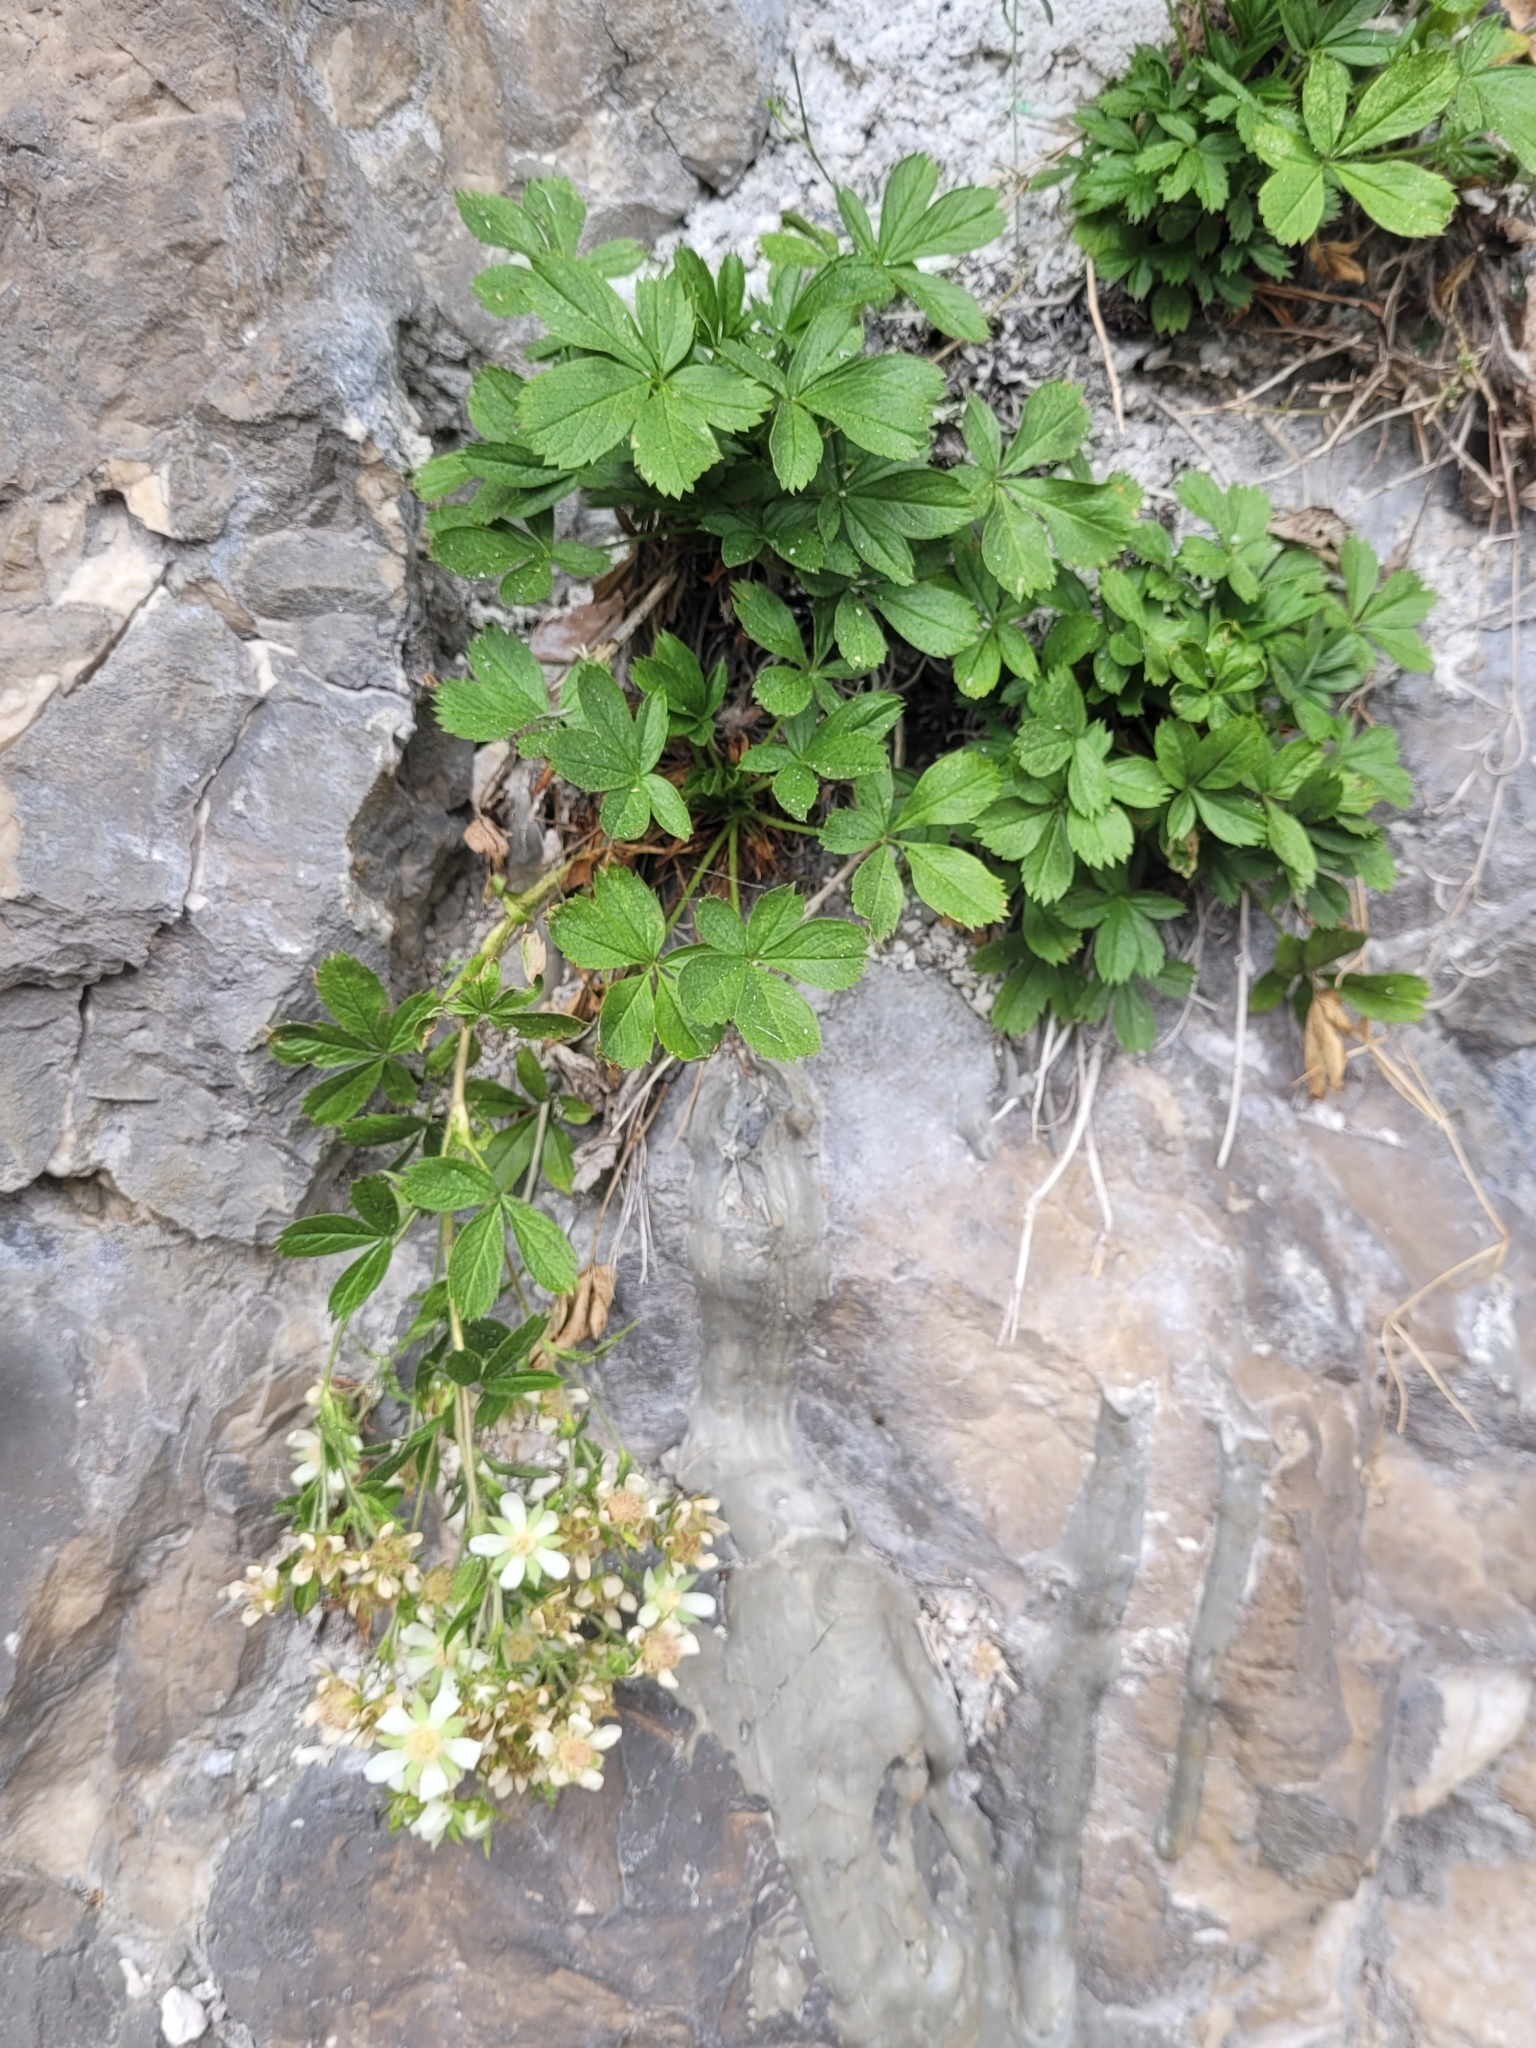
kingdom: Plantae
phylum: Tracheophyta
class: Magnoliopsida
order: Rosales
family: Rosaceae
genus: Potentilla
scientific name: Potentilla caulescens
